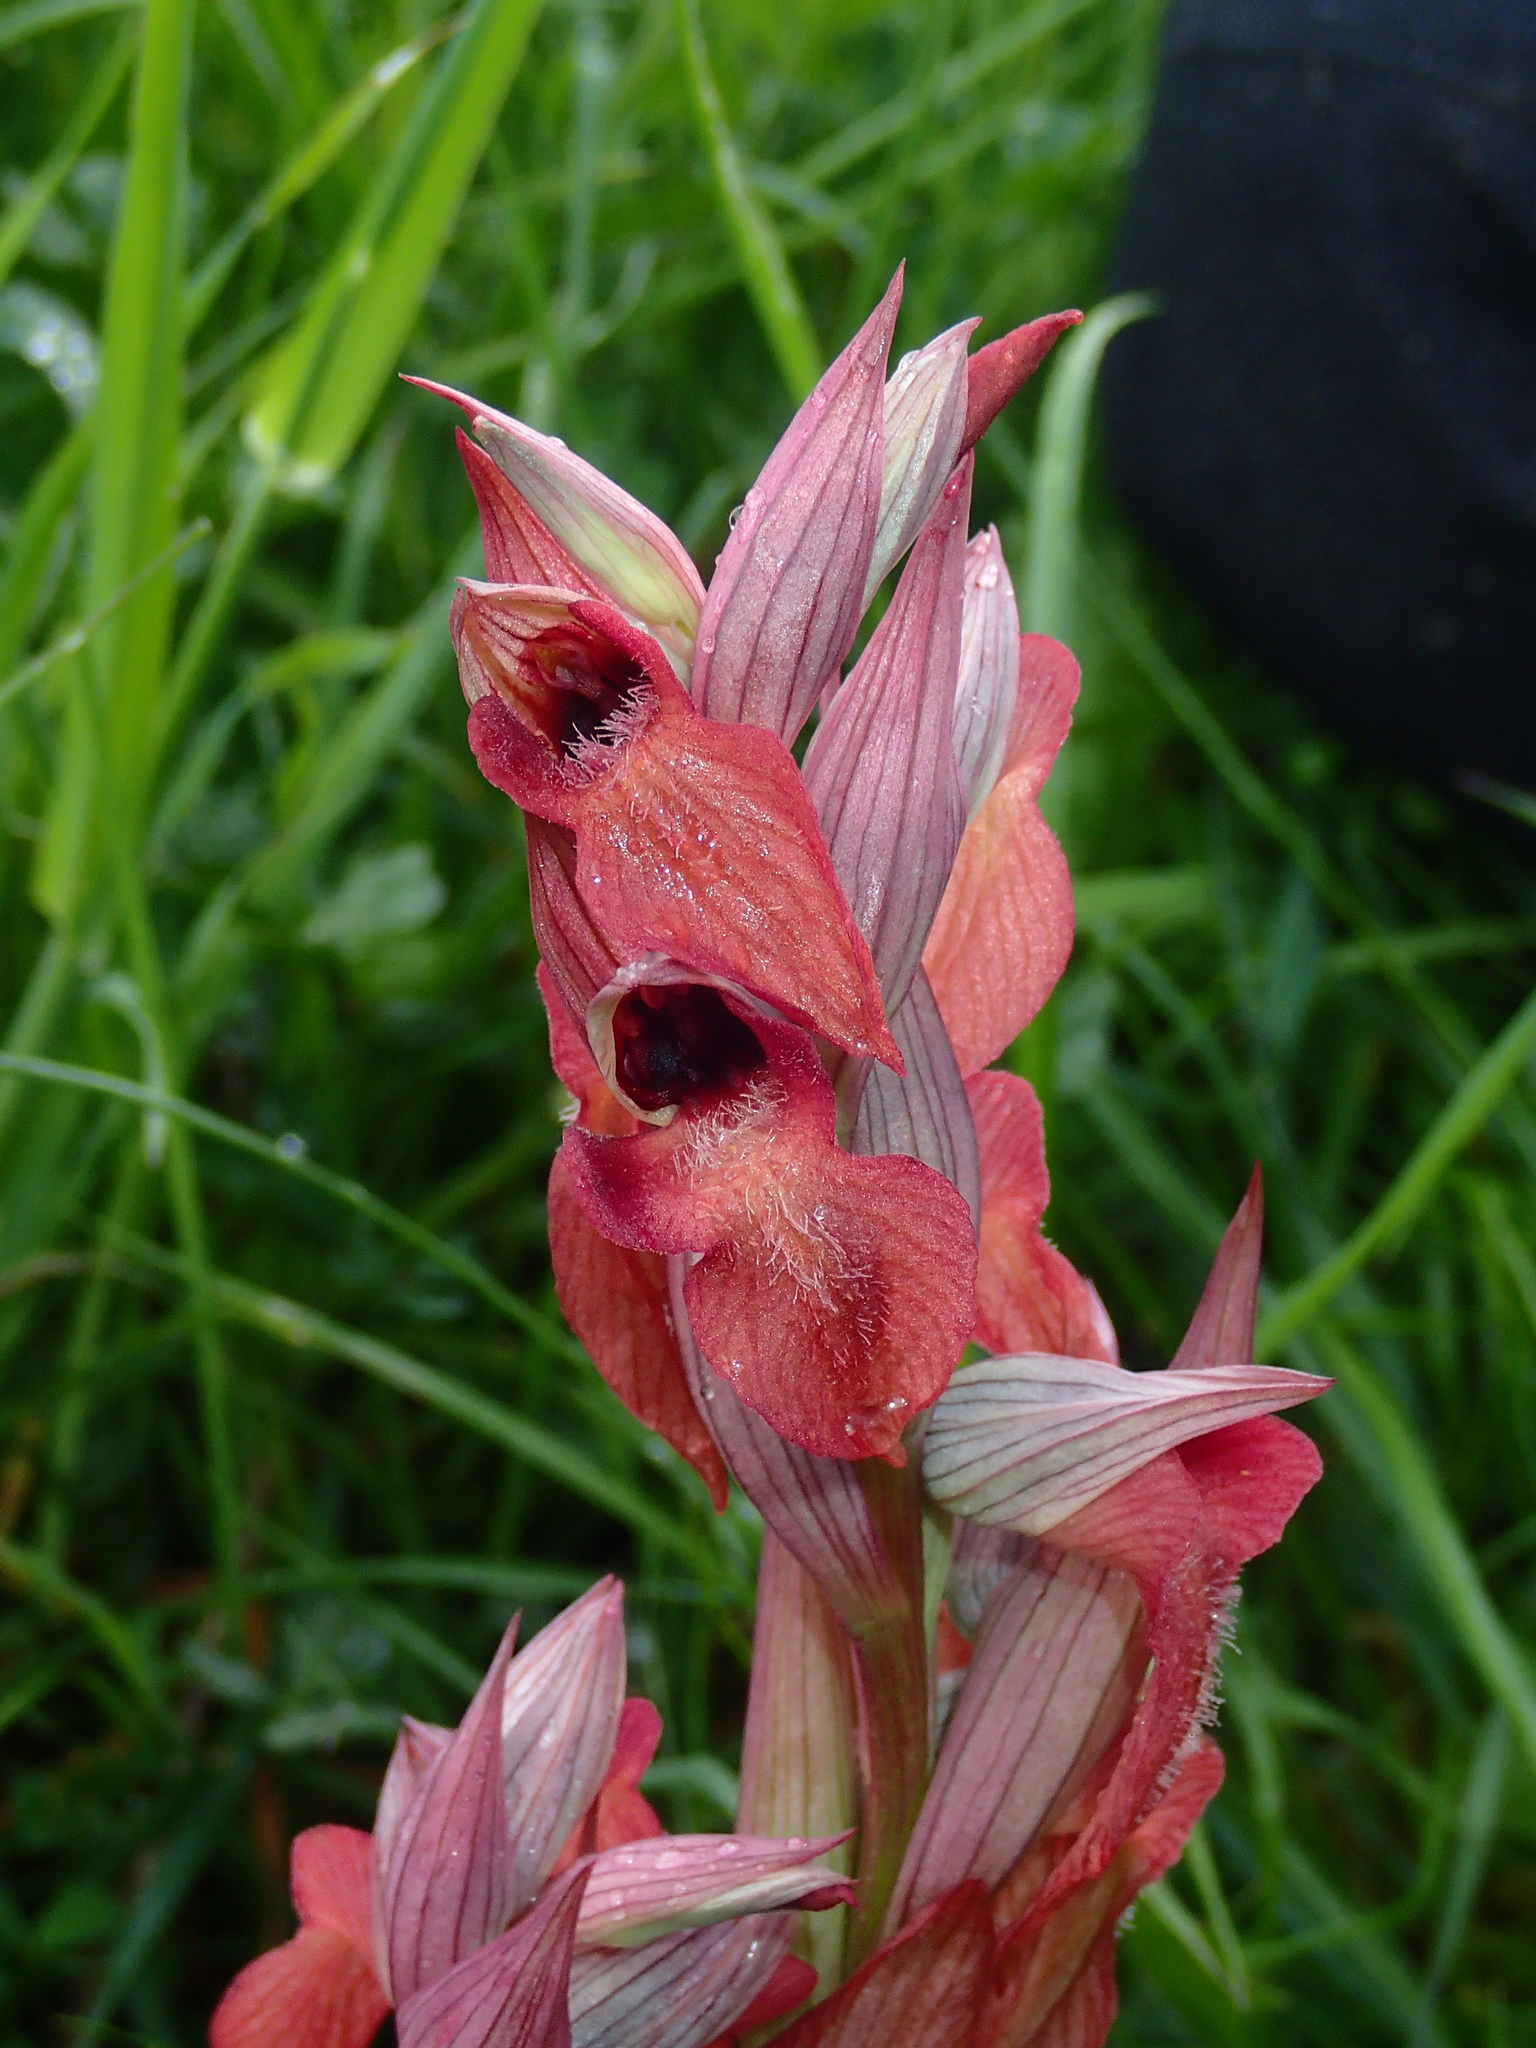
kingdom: Plantae
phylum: Tracheophyta
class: Liliopsida
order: Asparagales
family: Orchidaceae
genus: Serapias
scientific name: Serapias neglecta
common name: Neglected serapias
